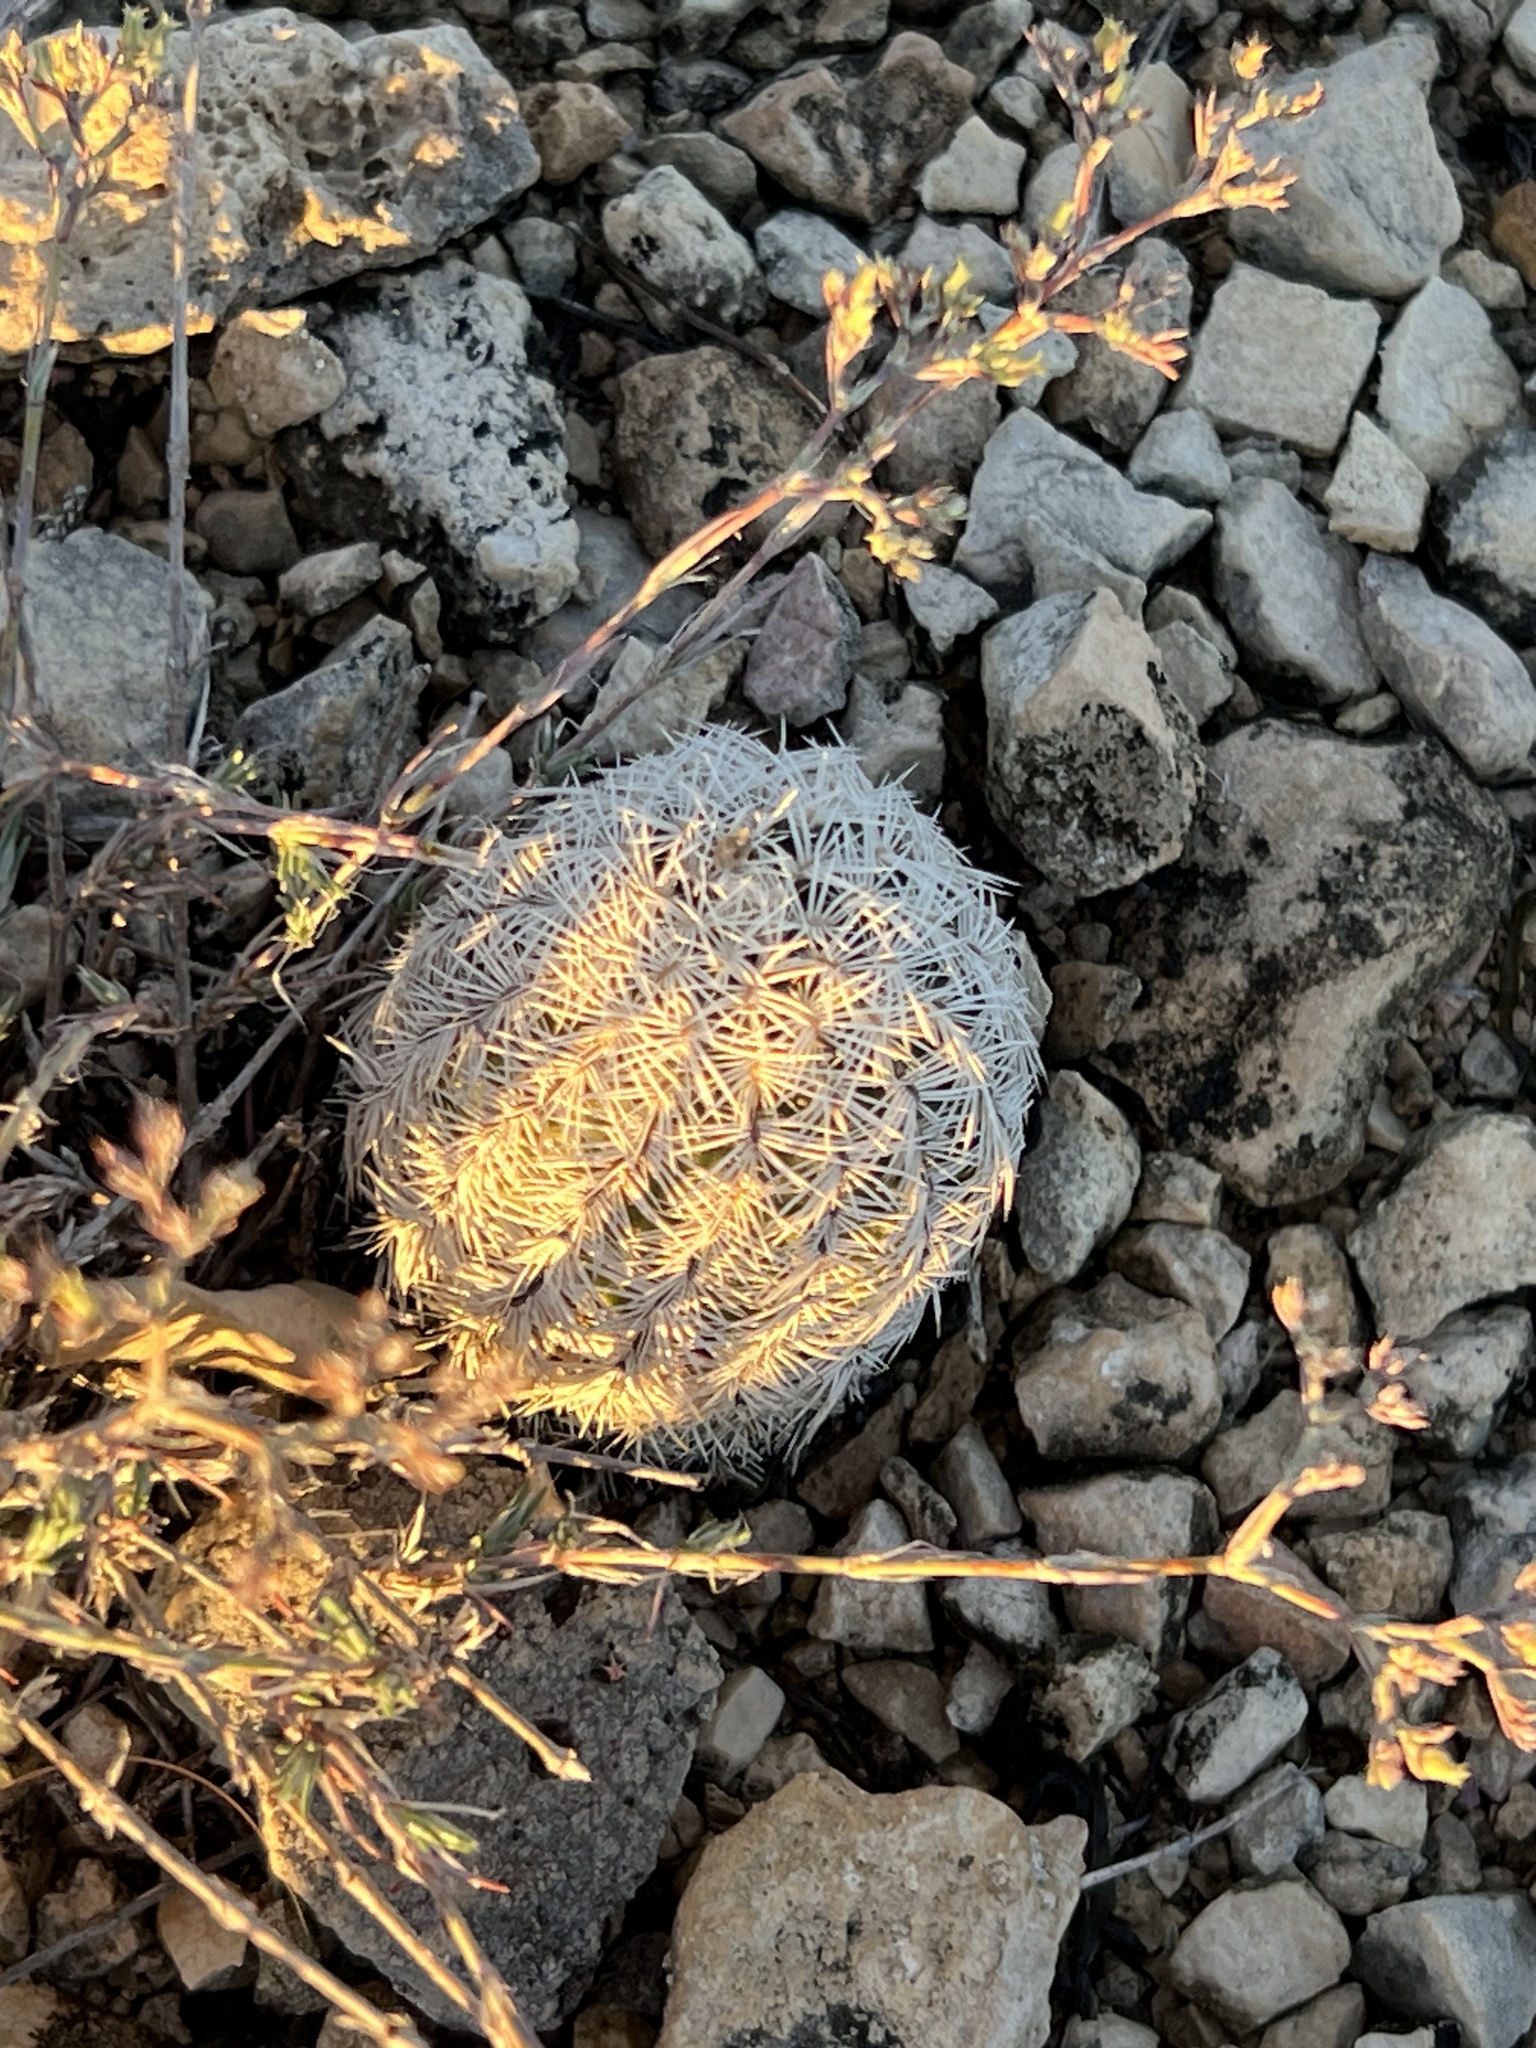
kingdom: Plantae
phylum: Tracheophyta
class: Magnoliopsida
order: Caryophyllales
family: Cactaceae
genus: Echinocereus
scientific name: Echinocereus reichenbachii
